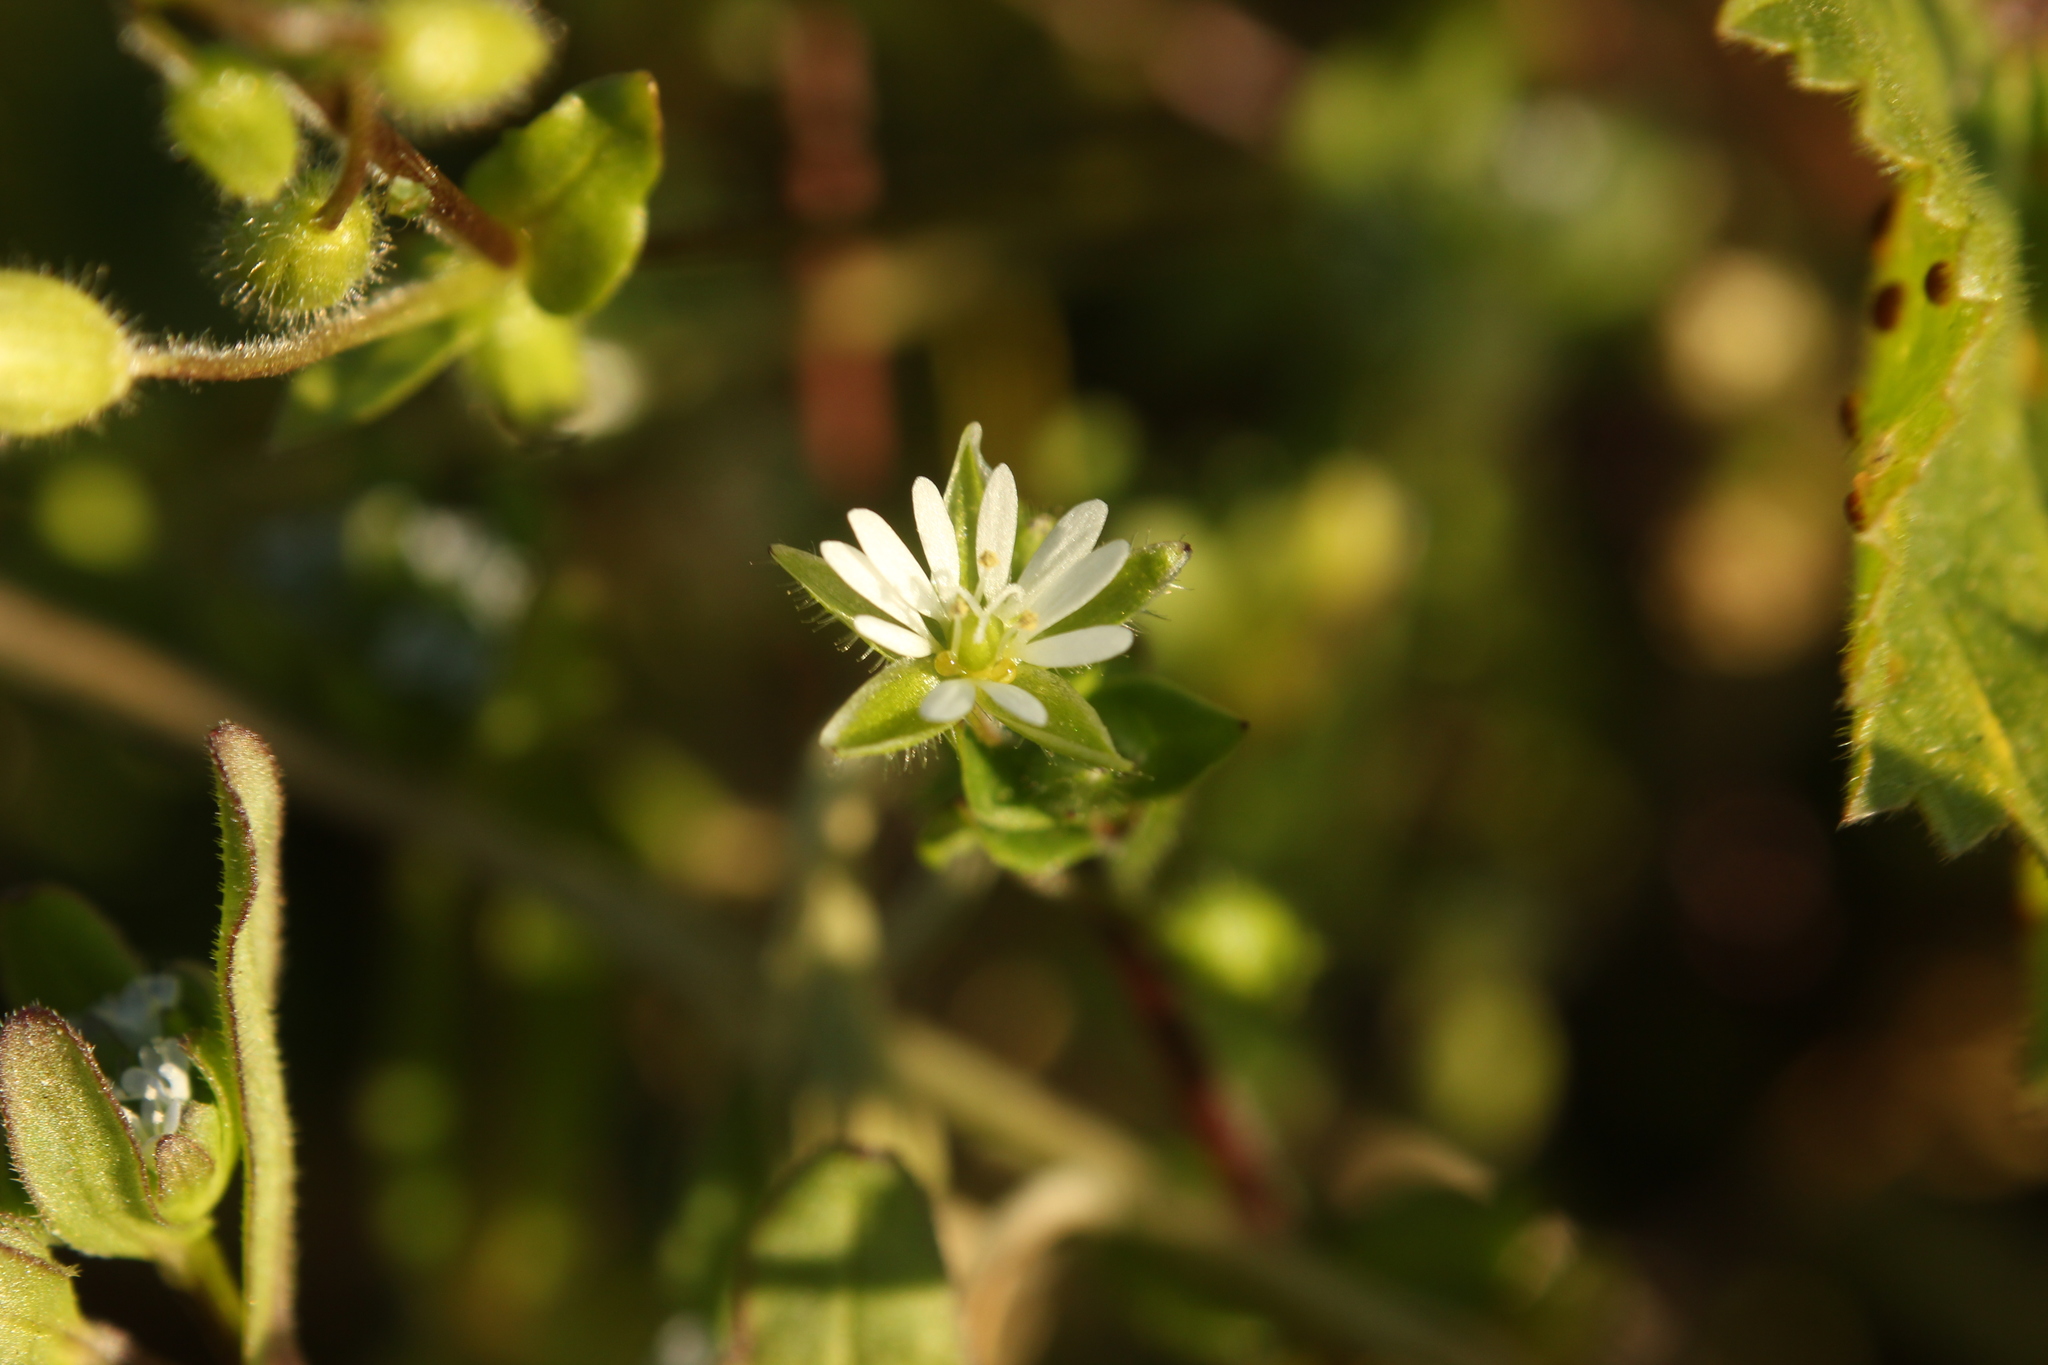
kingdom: Plantae
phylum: Tracheophyta
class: Magnoliopsida
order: Caryophyllales
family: Caryophyllaceae
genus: Stellaria
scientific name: Stellaria media
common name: Common chickweed
